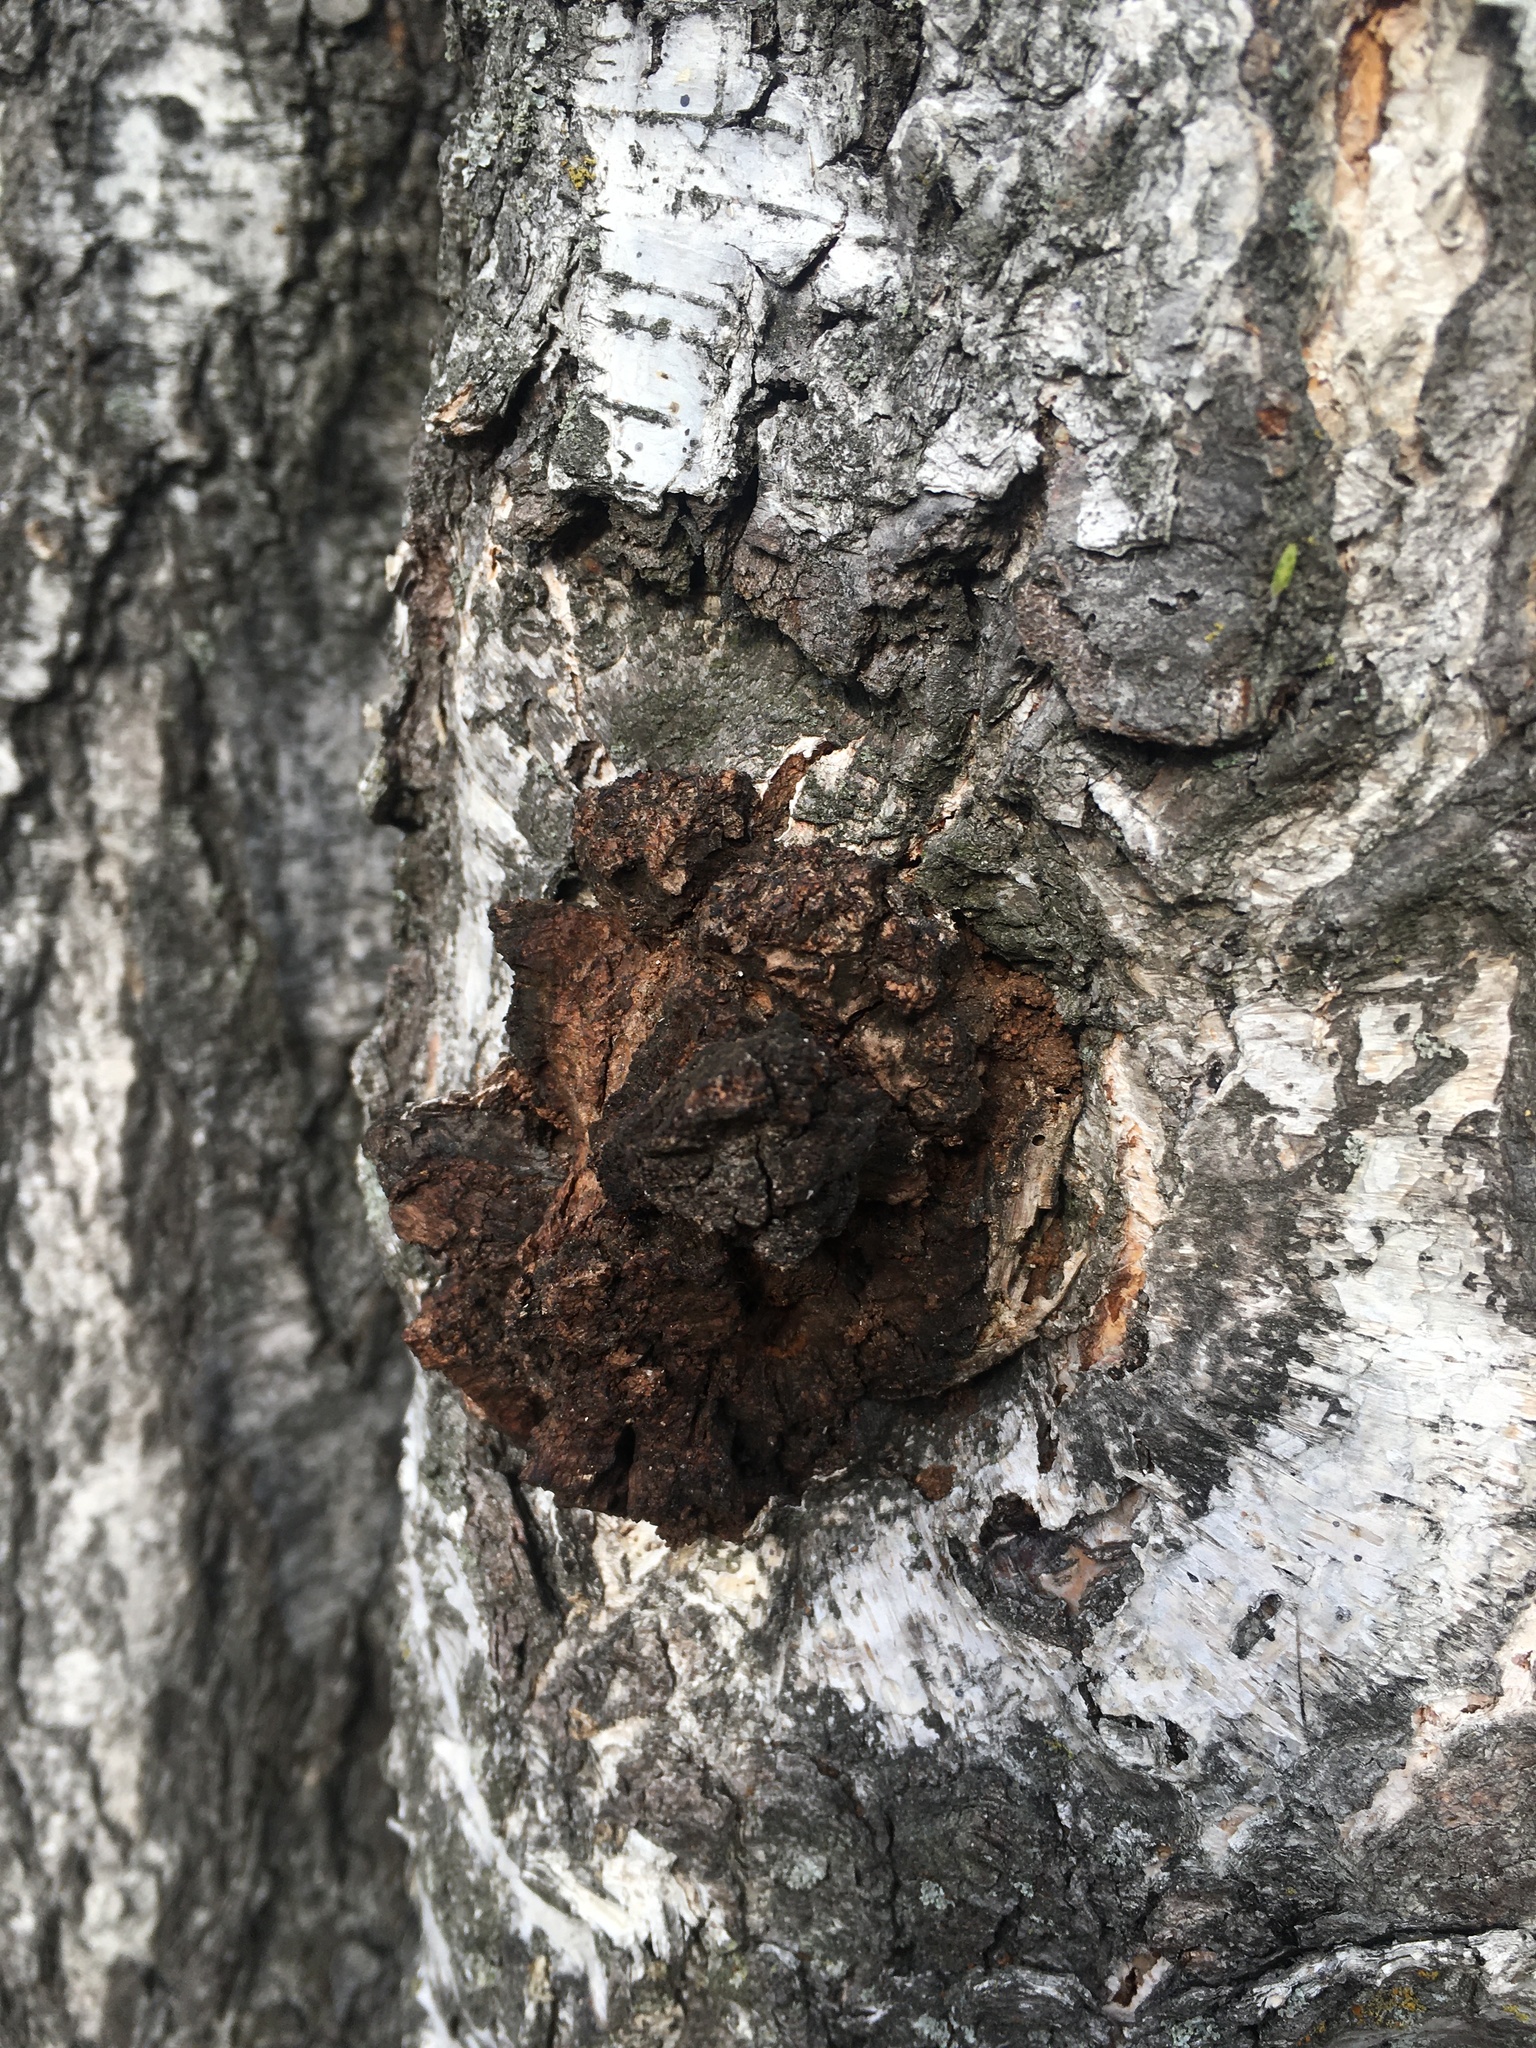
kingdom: Fungi
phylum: Basidiomycota
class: Agaricomycetes
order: Hymenochaetales
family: Hymenochaetaceae
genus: Inonotus
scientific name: Inonotus obliquus
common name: Chaga
